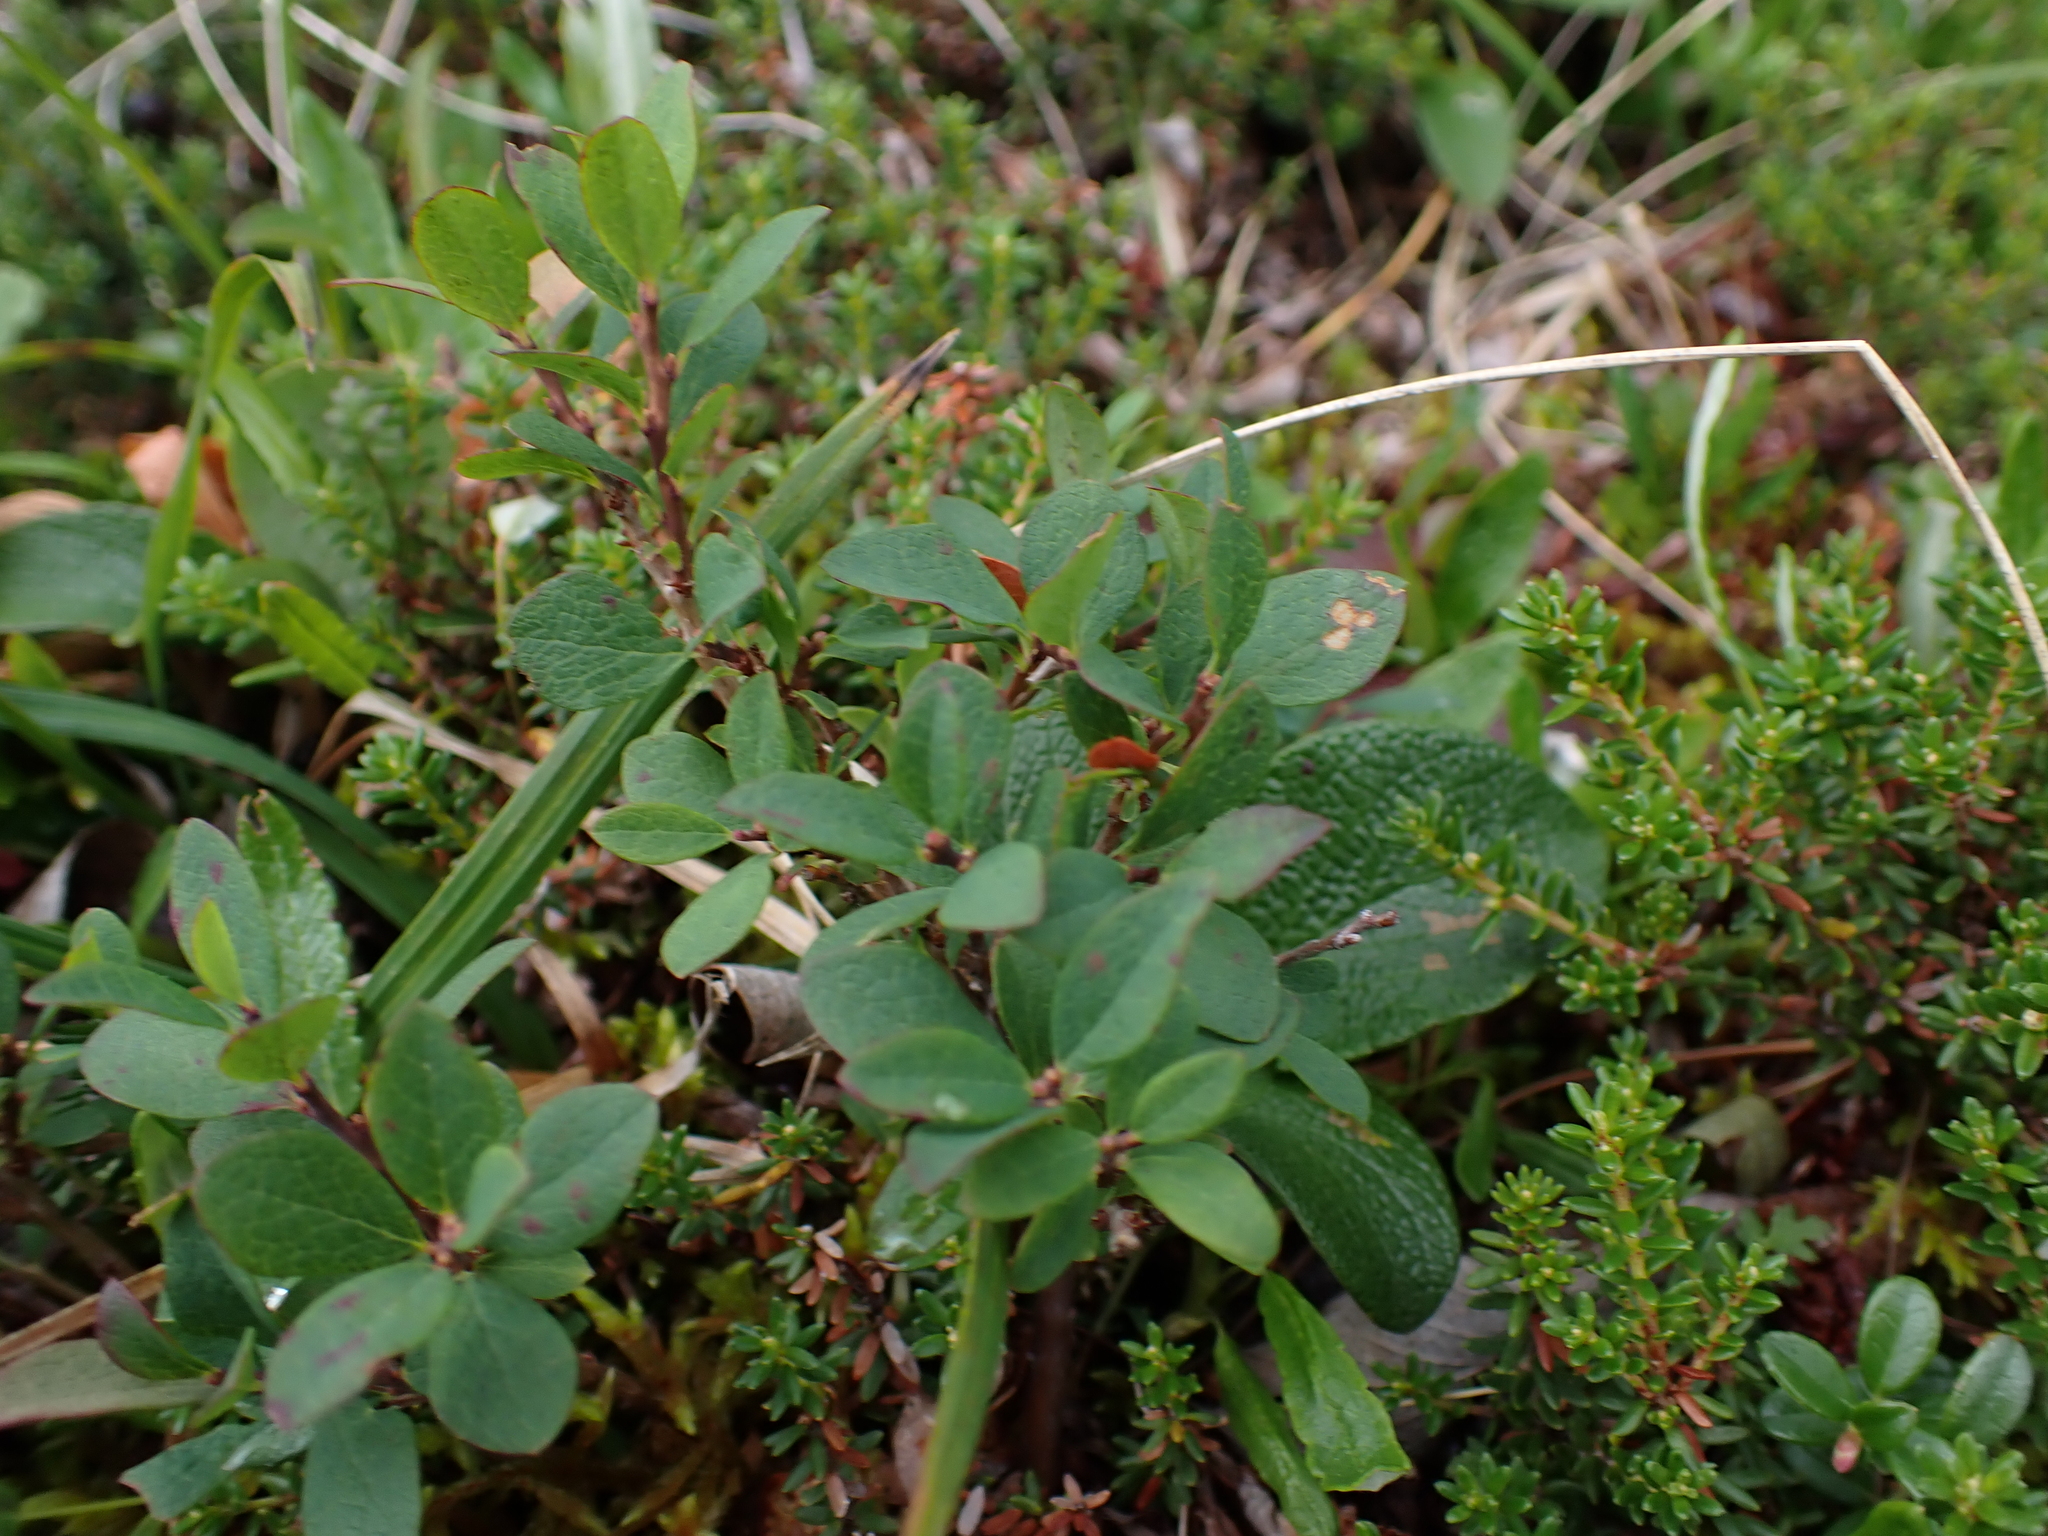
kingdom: Plantae
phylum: Tracheophyta
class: Magnoliopsida
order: Ericales
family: Ericaceae
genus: Vaccinium
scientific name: Vaccinium uliginosum
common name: Bog bilberry
